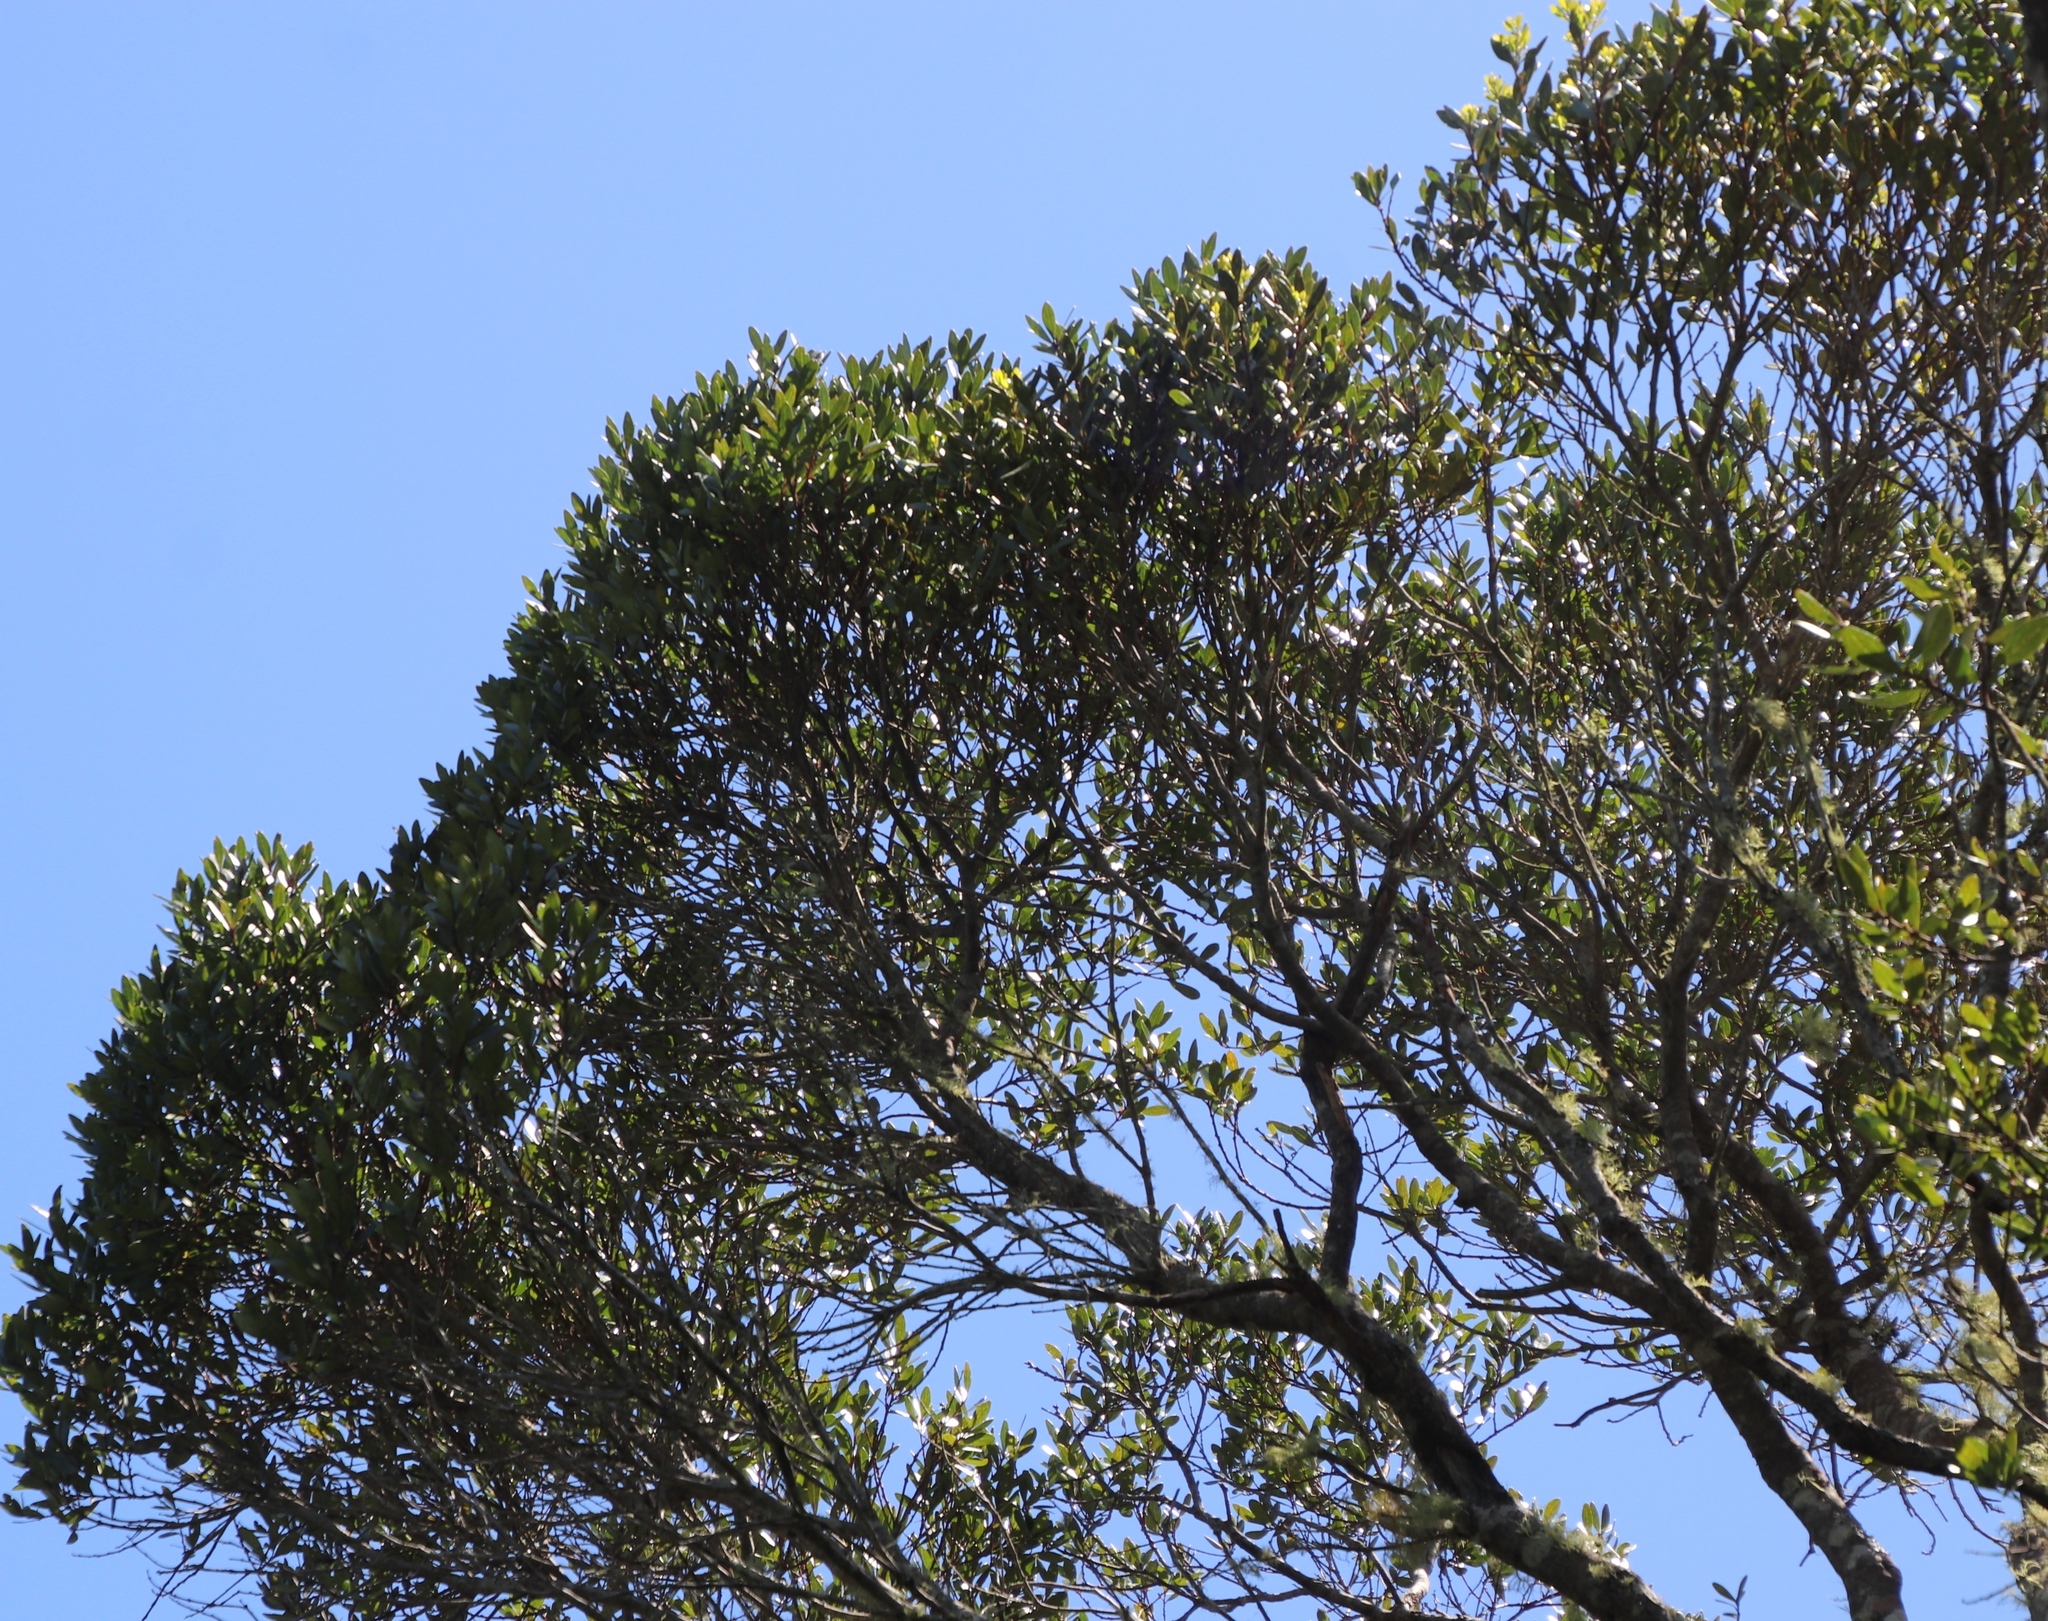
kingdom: Plantae
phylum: Tracheophyta
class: Magnoliopsida
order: Ericales
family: Ebenaceae
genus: Euclea
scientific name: Euclea racemosa
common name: Dune guarri
